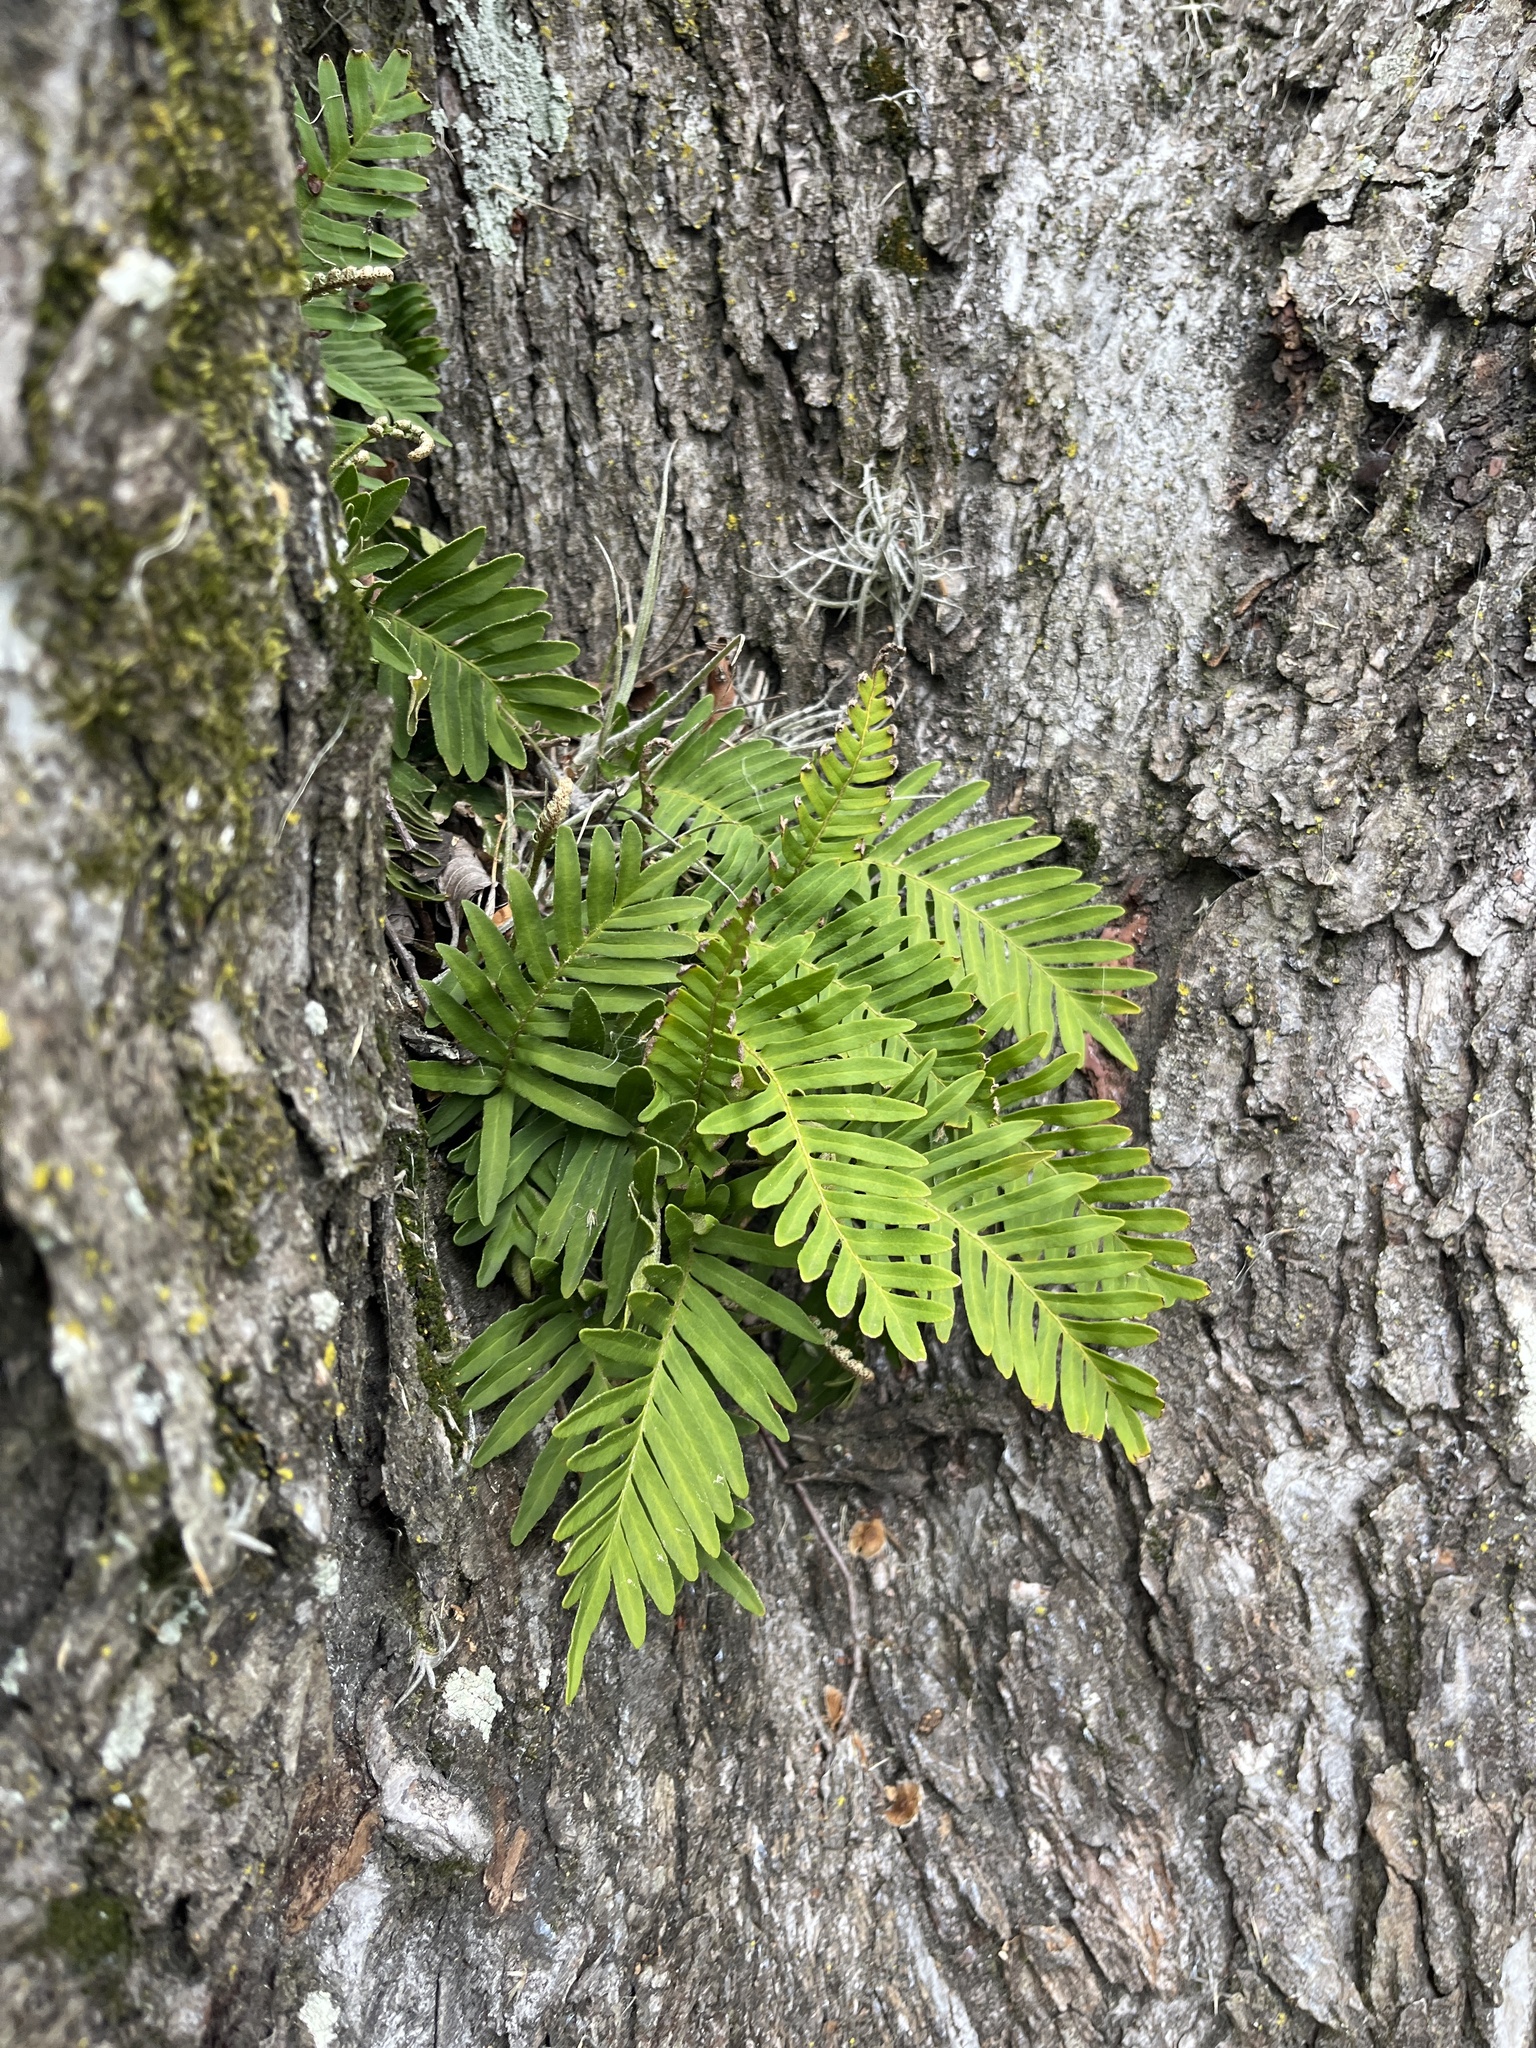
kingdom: Plantae
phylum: Tracheophyta
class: Polypodiopsida
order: Polypodiales
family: Polypodiaceae
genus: Pleopeltis
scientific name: Pleopeltis michauxiana
